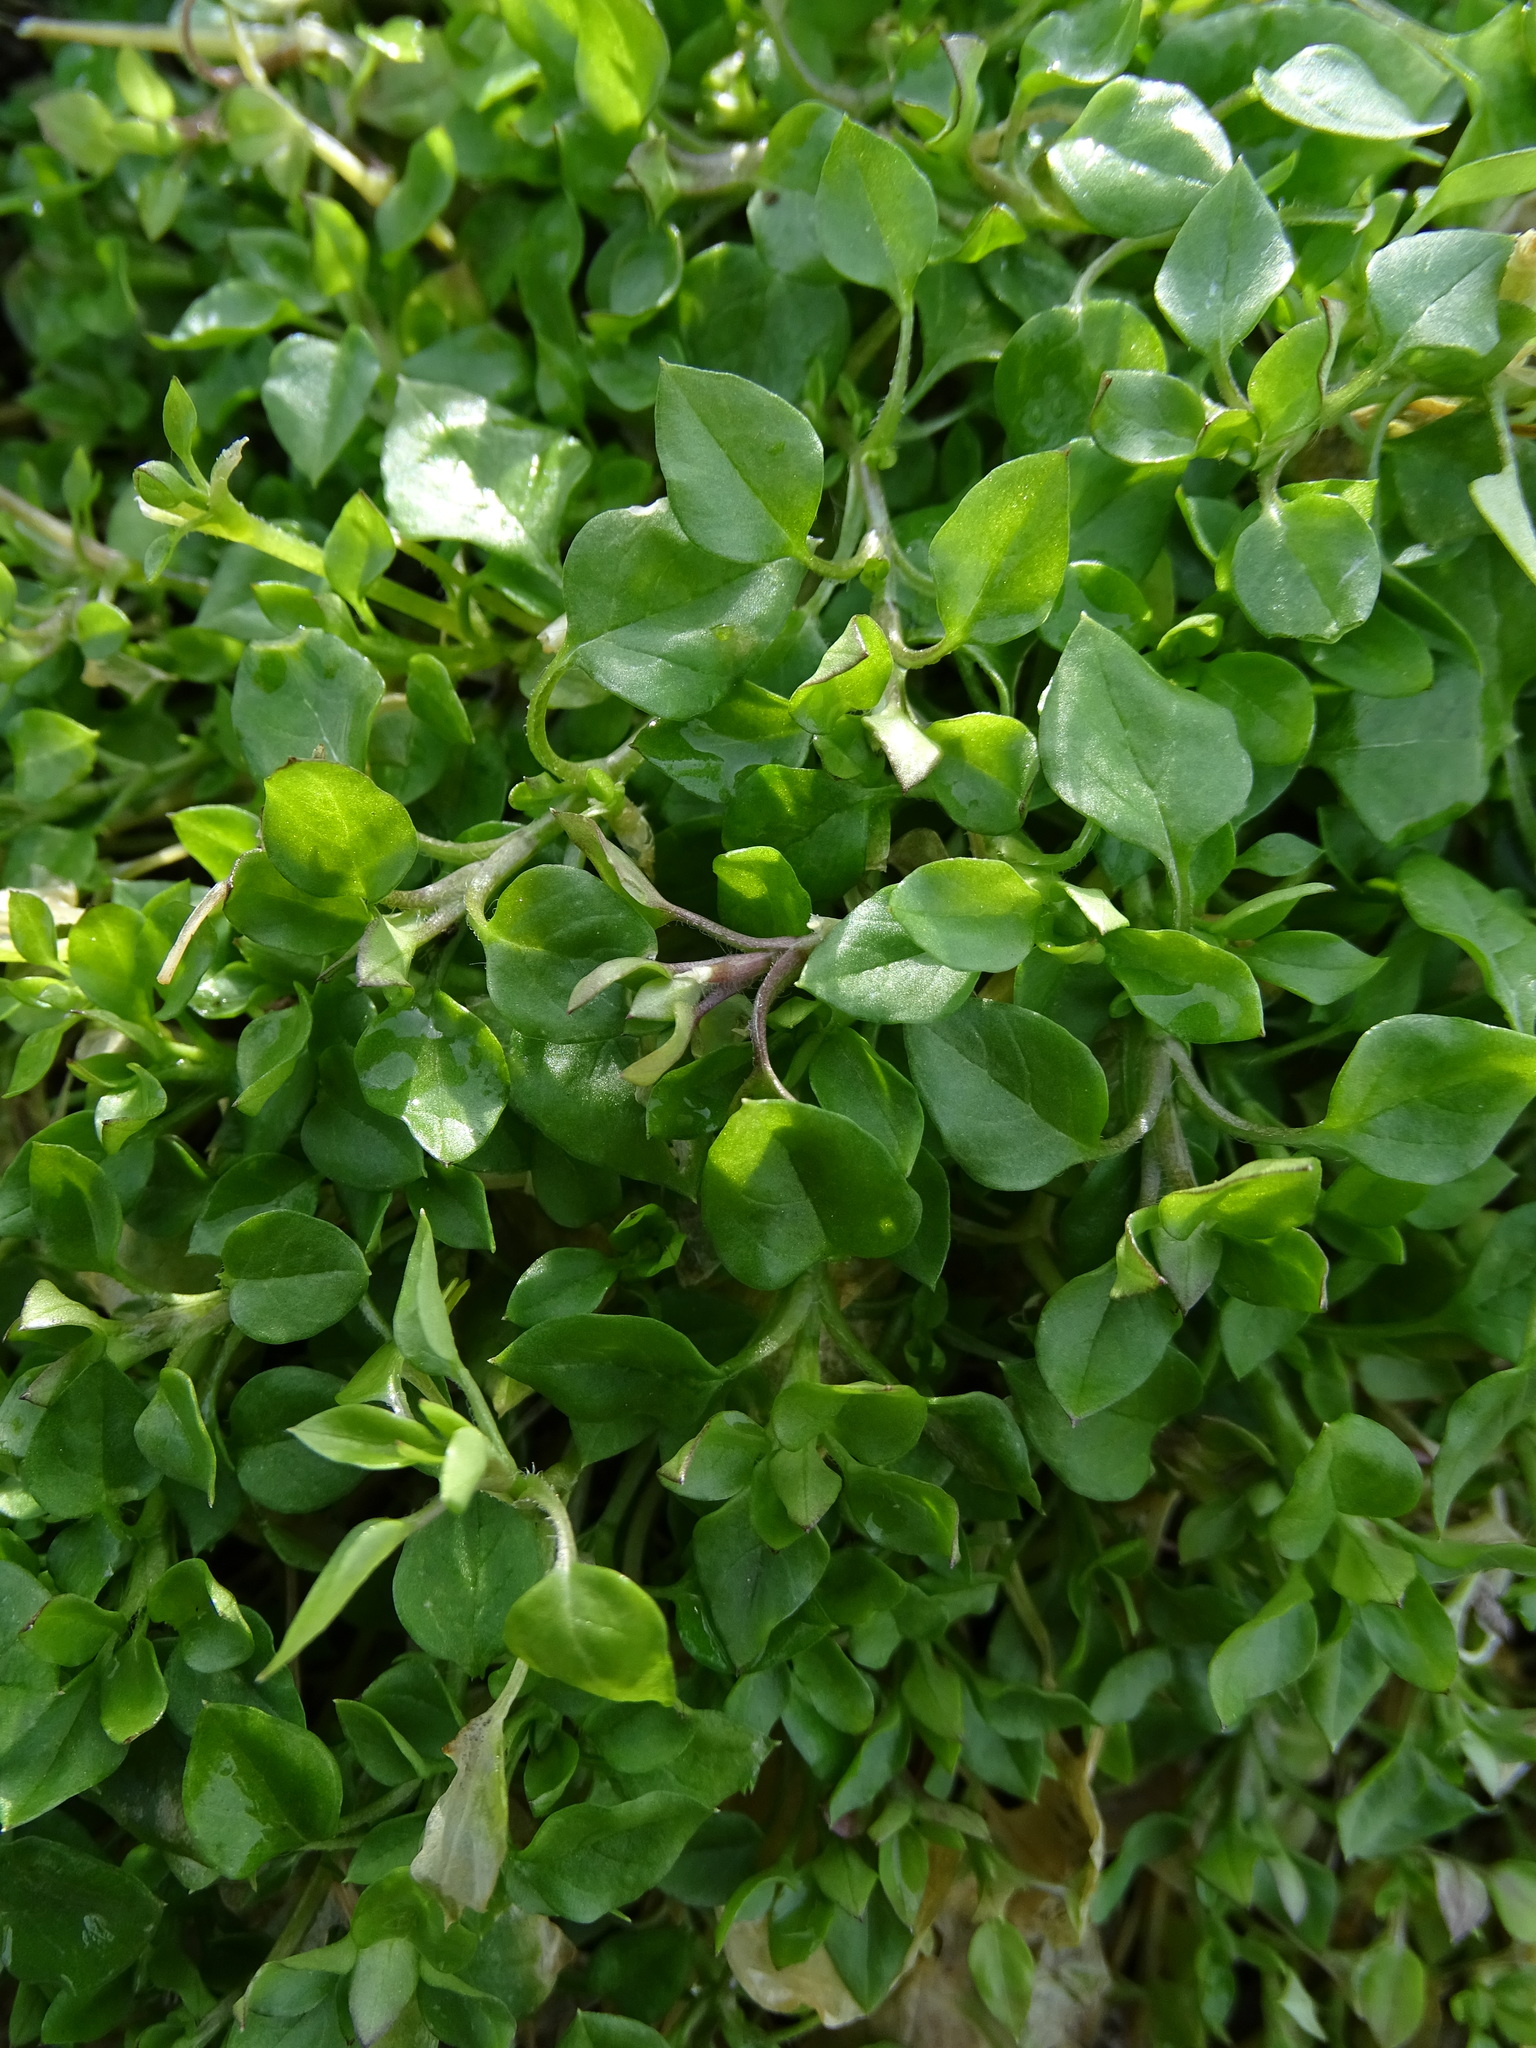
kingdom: Plantae
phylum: Tracheophyta
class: Magnoliopsida
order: Caryophyllales
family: Caryophyllaceae
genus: Stellaria
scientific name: Stellaria media
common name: Common chickweed
